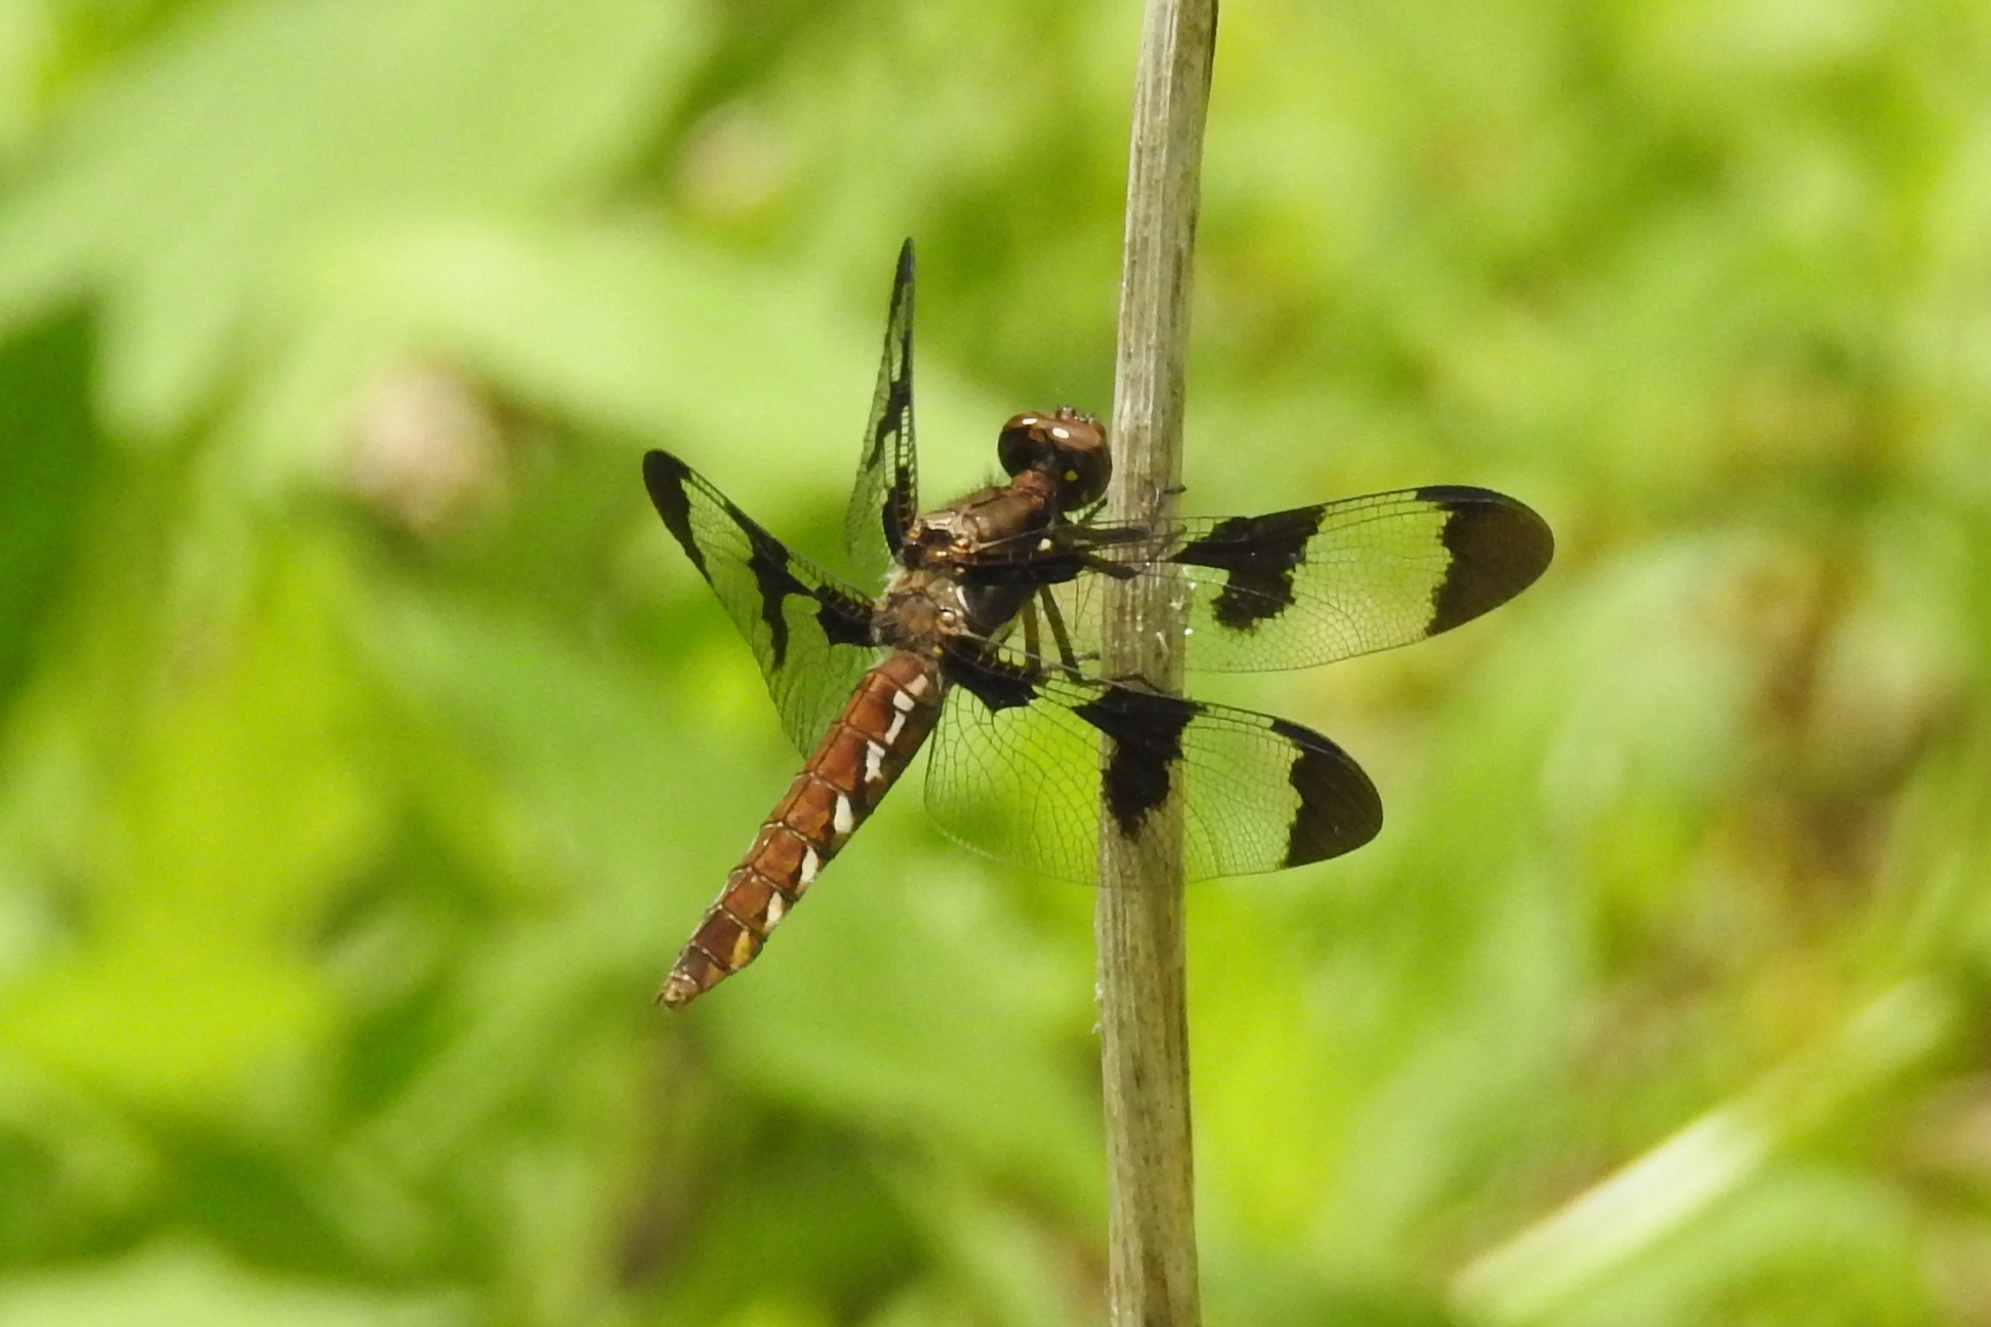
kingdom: Animalia
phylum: Arthropoda
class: Insecta
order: Odonata
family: Libellulidae
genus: Plathemis
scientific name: Plathemis lydia
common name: Common whitetail
